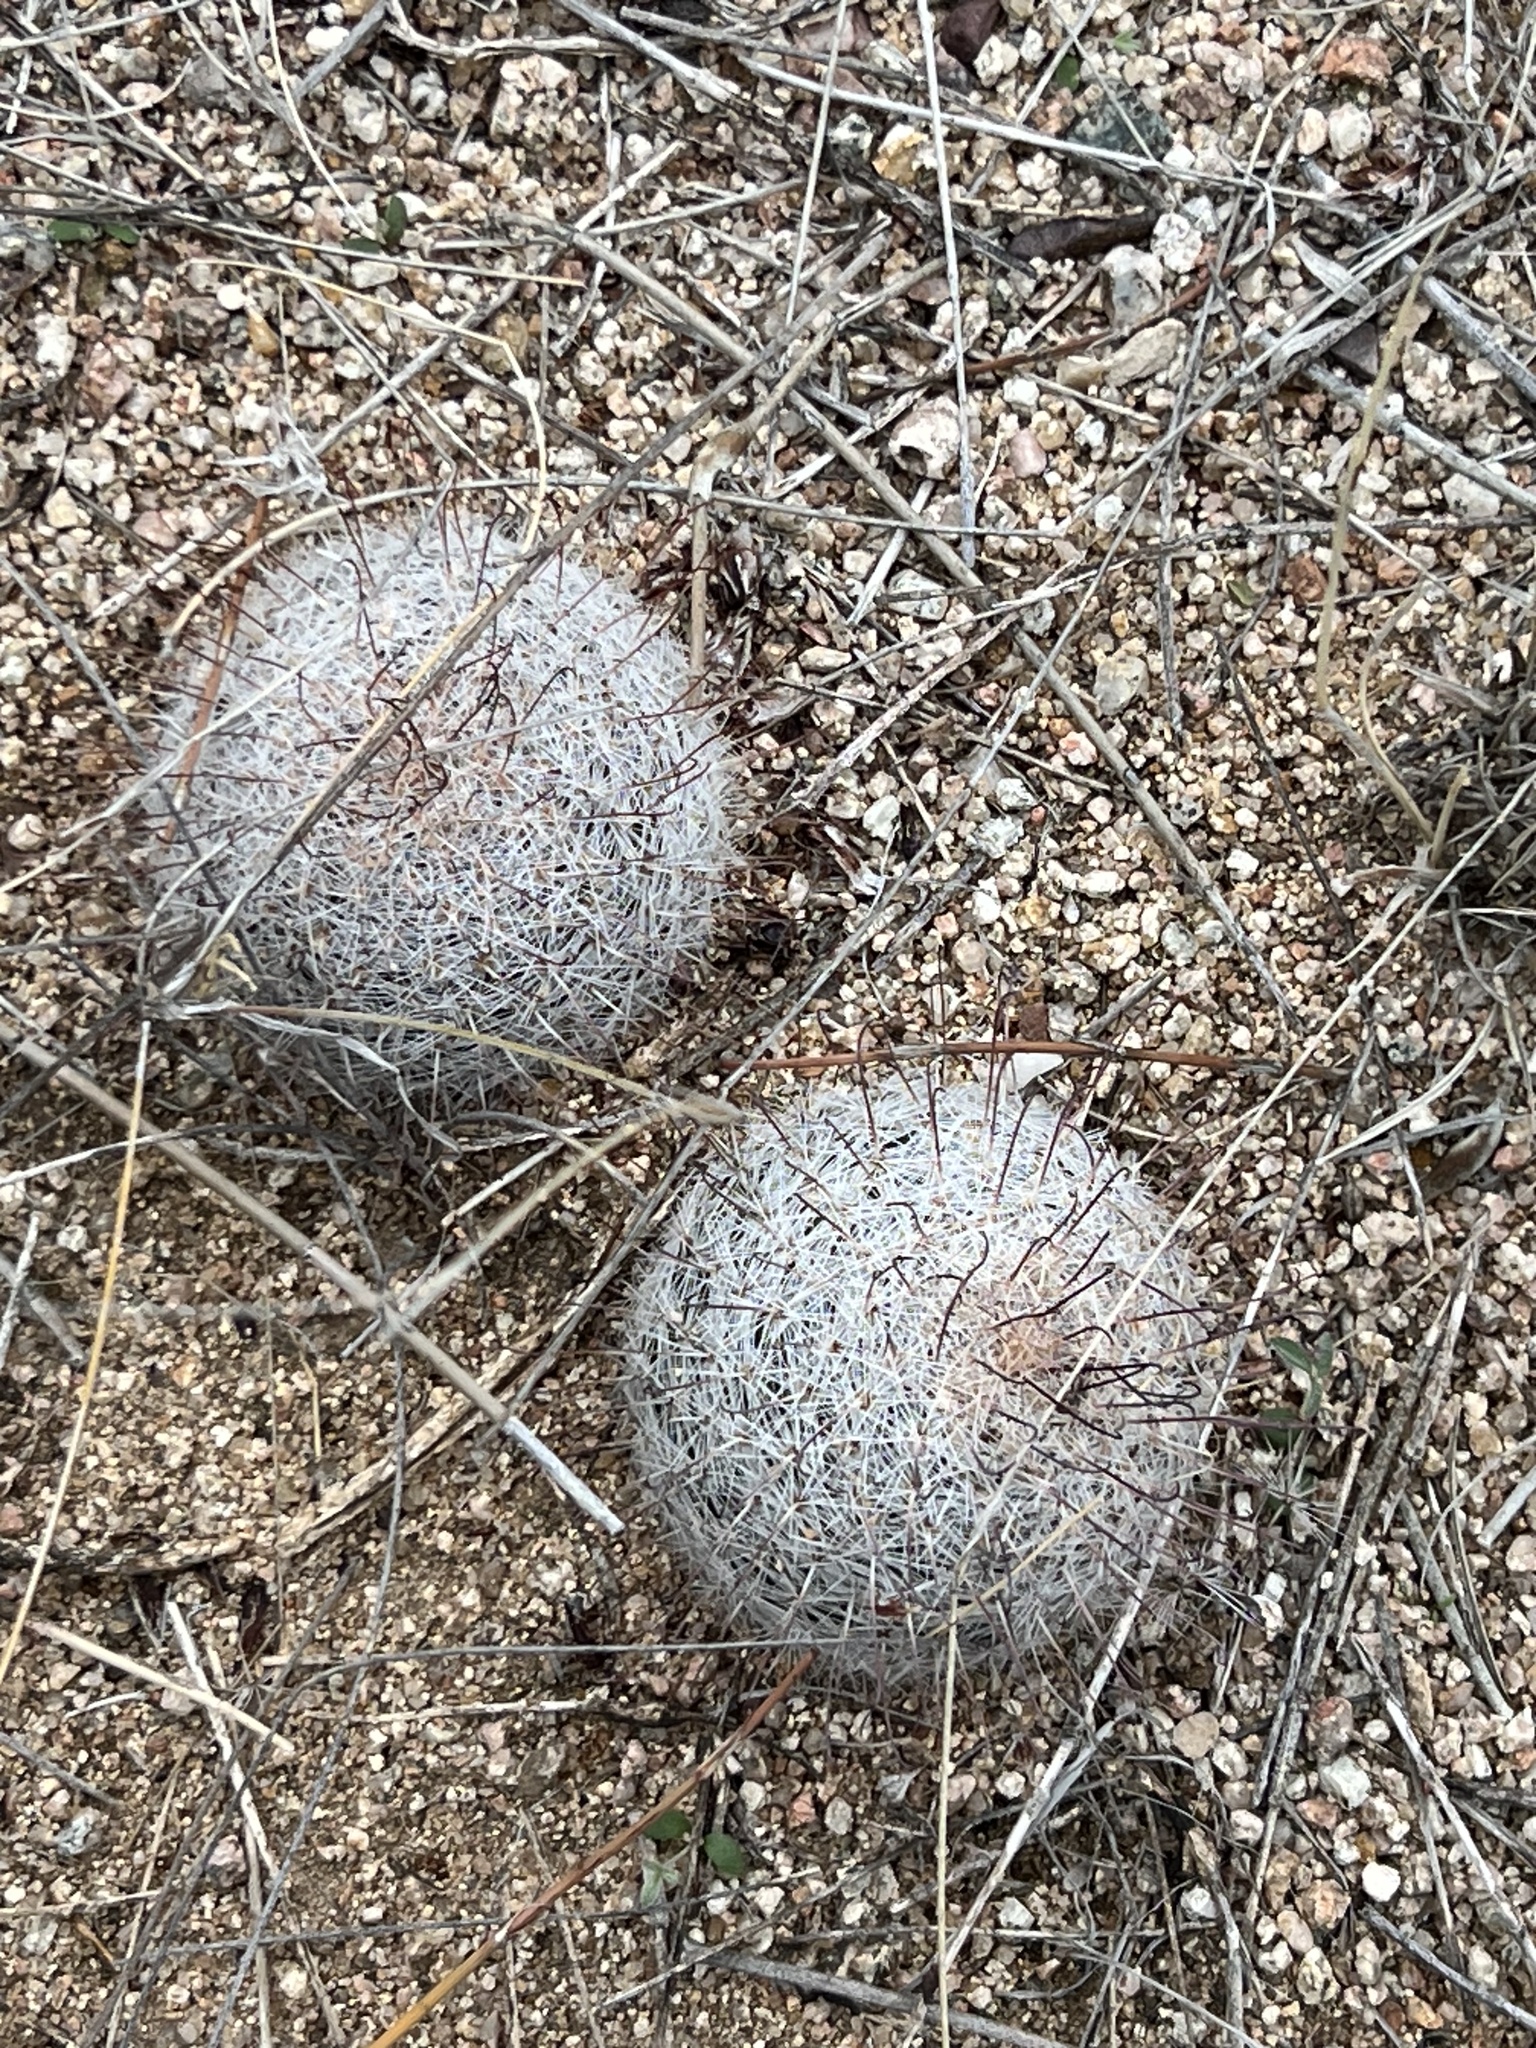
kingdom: Plantae
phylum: Tracheophyta
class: Magnoliopsida
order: Caryophyllales
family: Cactaceae
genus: Cochemiea
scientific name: Cochemiea grahamii
